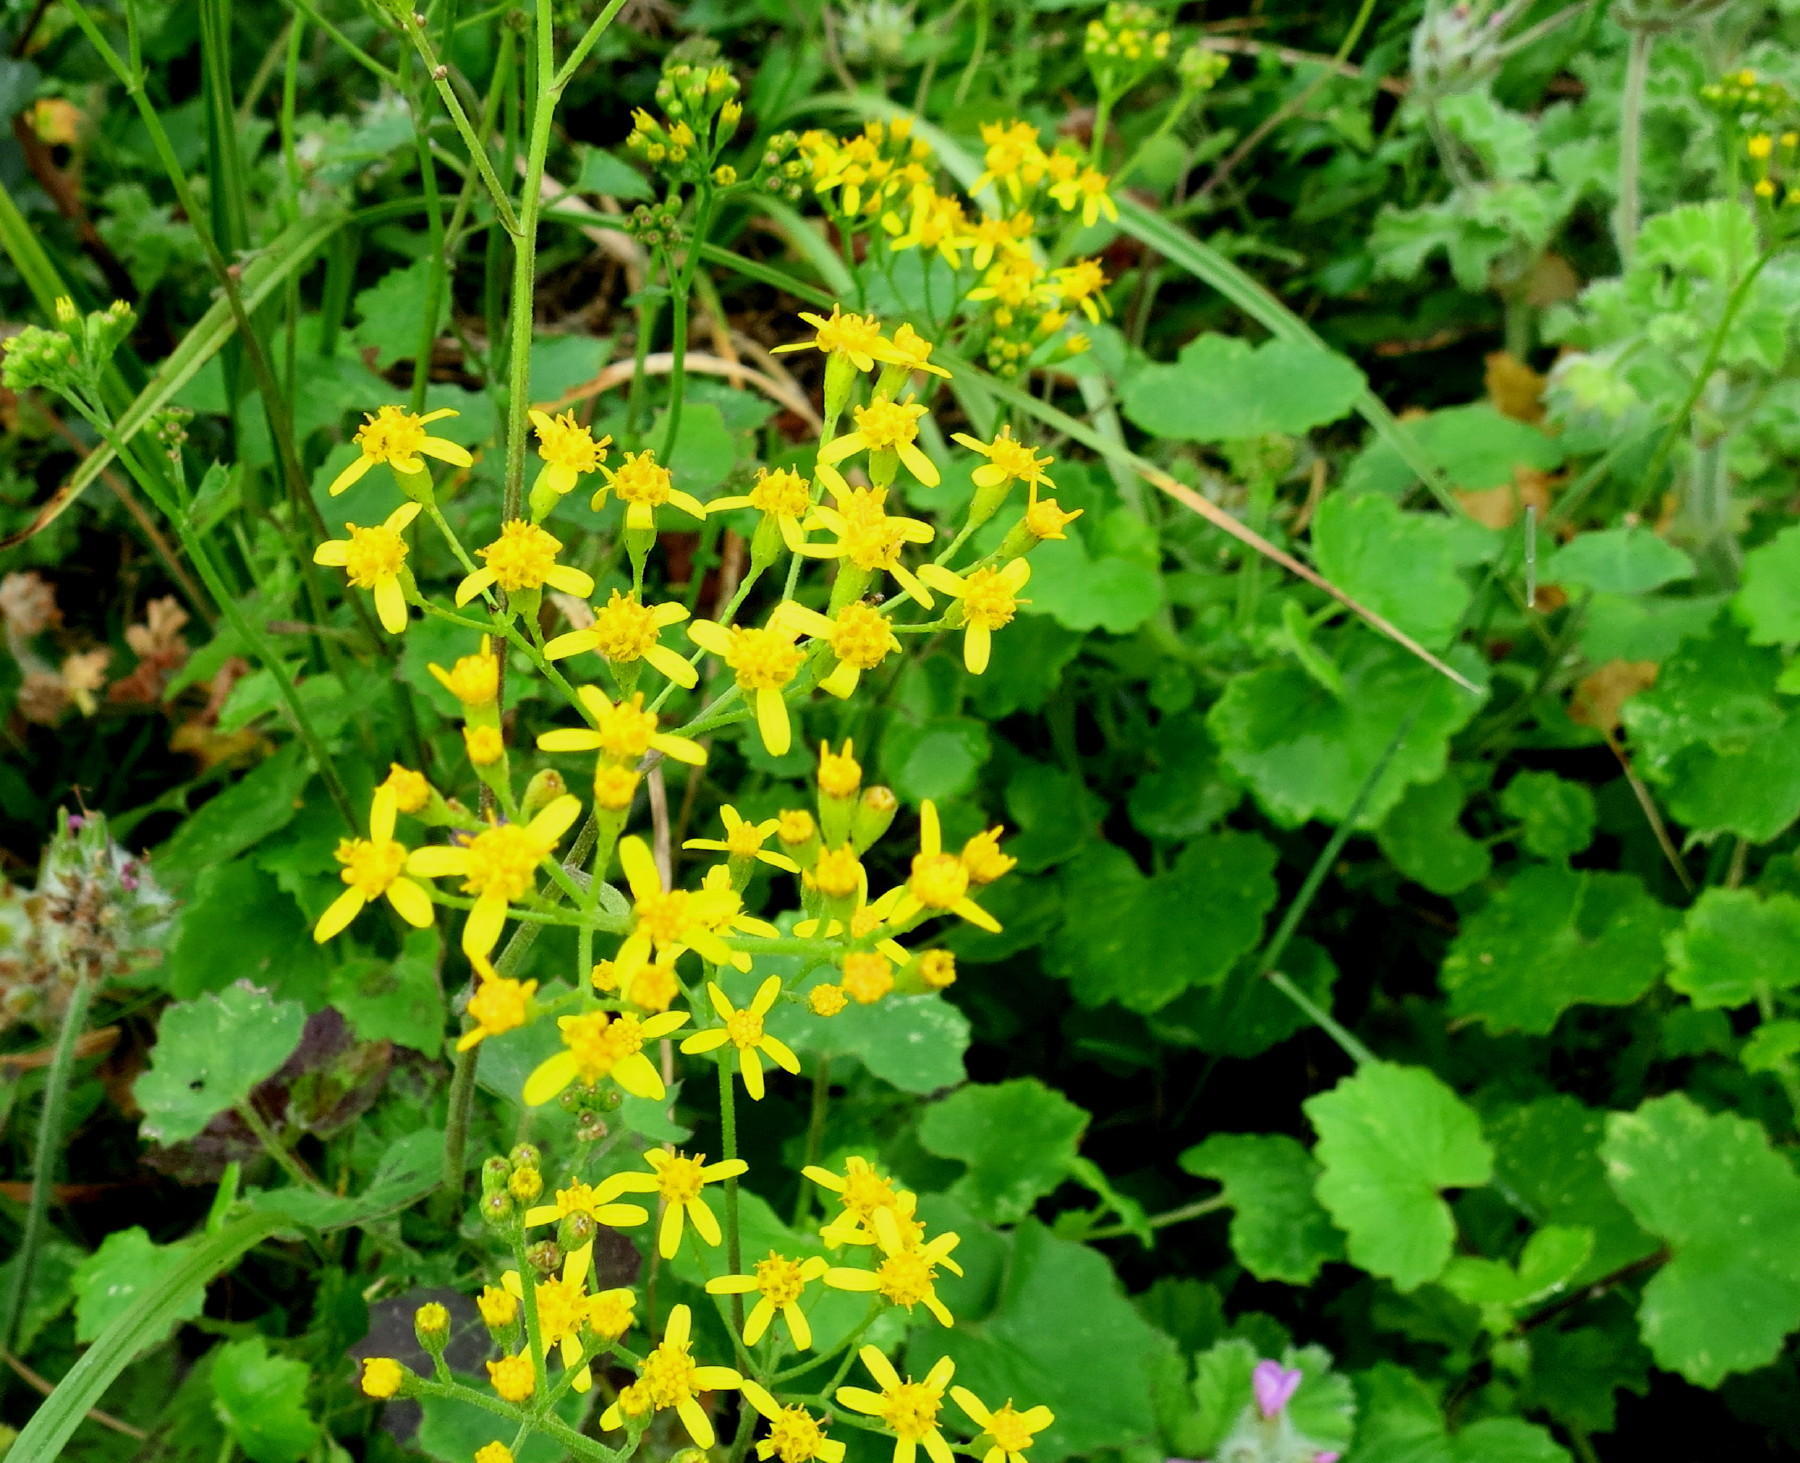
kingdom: Plantae
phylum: Tracheophyta
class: Magnoliopsida
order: Asterales
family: Asteraceae
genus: Cineraria
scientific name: Cineraria geifolia
